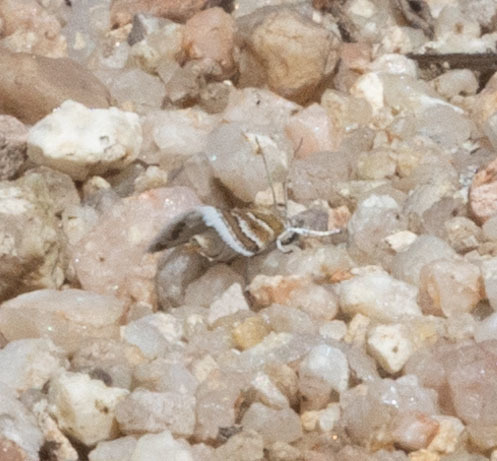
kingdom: Animalia
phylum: Arthropoda
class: Insecta
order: Lepidoptera
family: Crambidae
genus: Nannobotys
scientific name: Nannobotys commortalis
